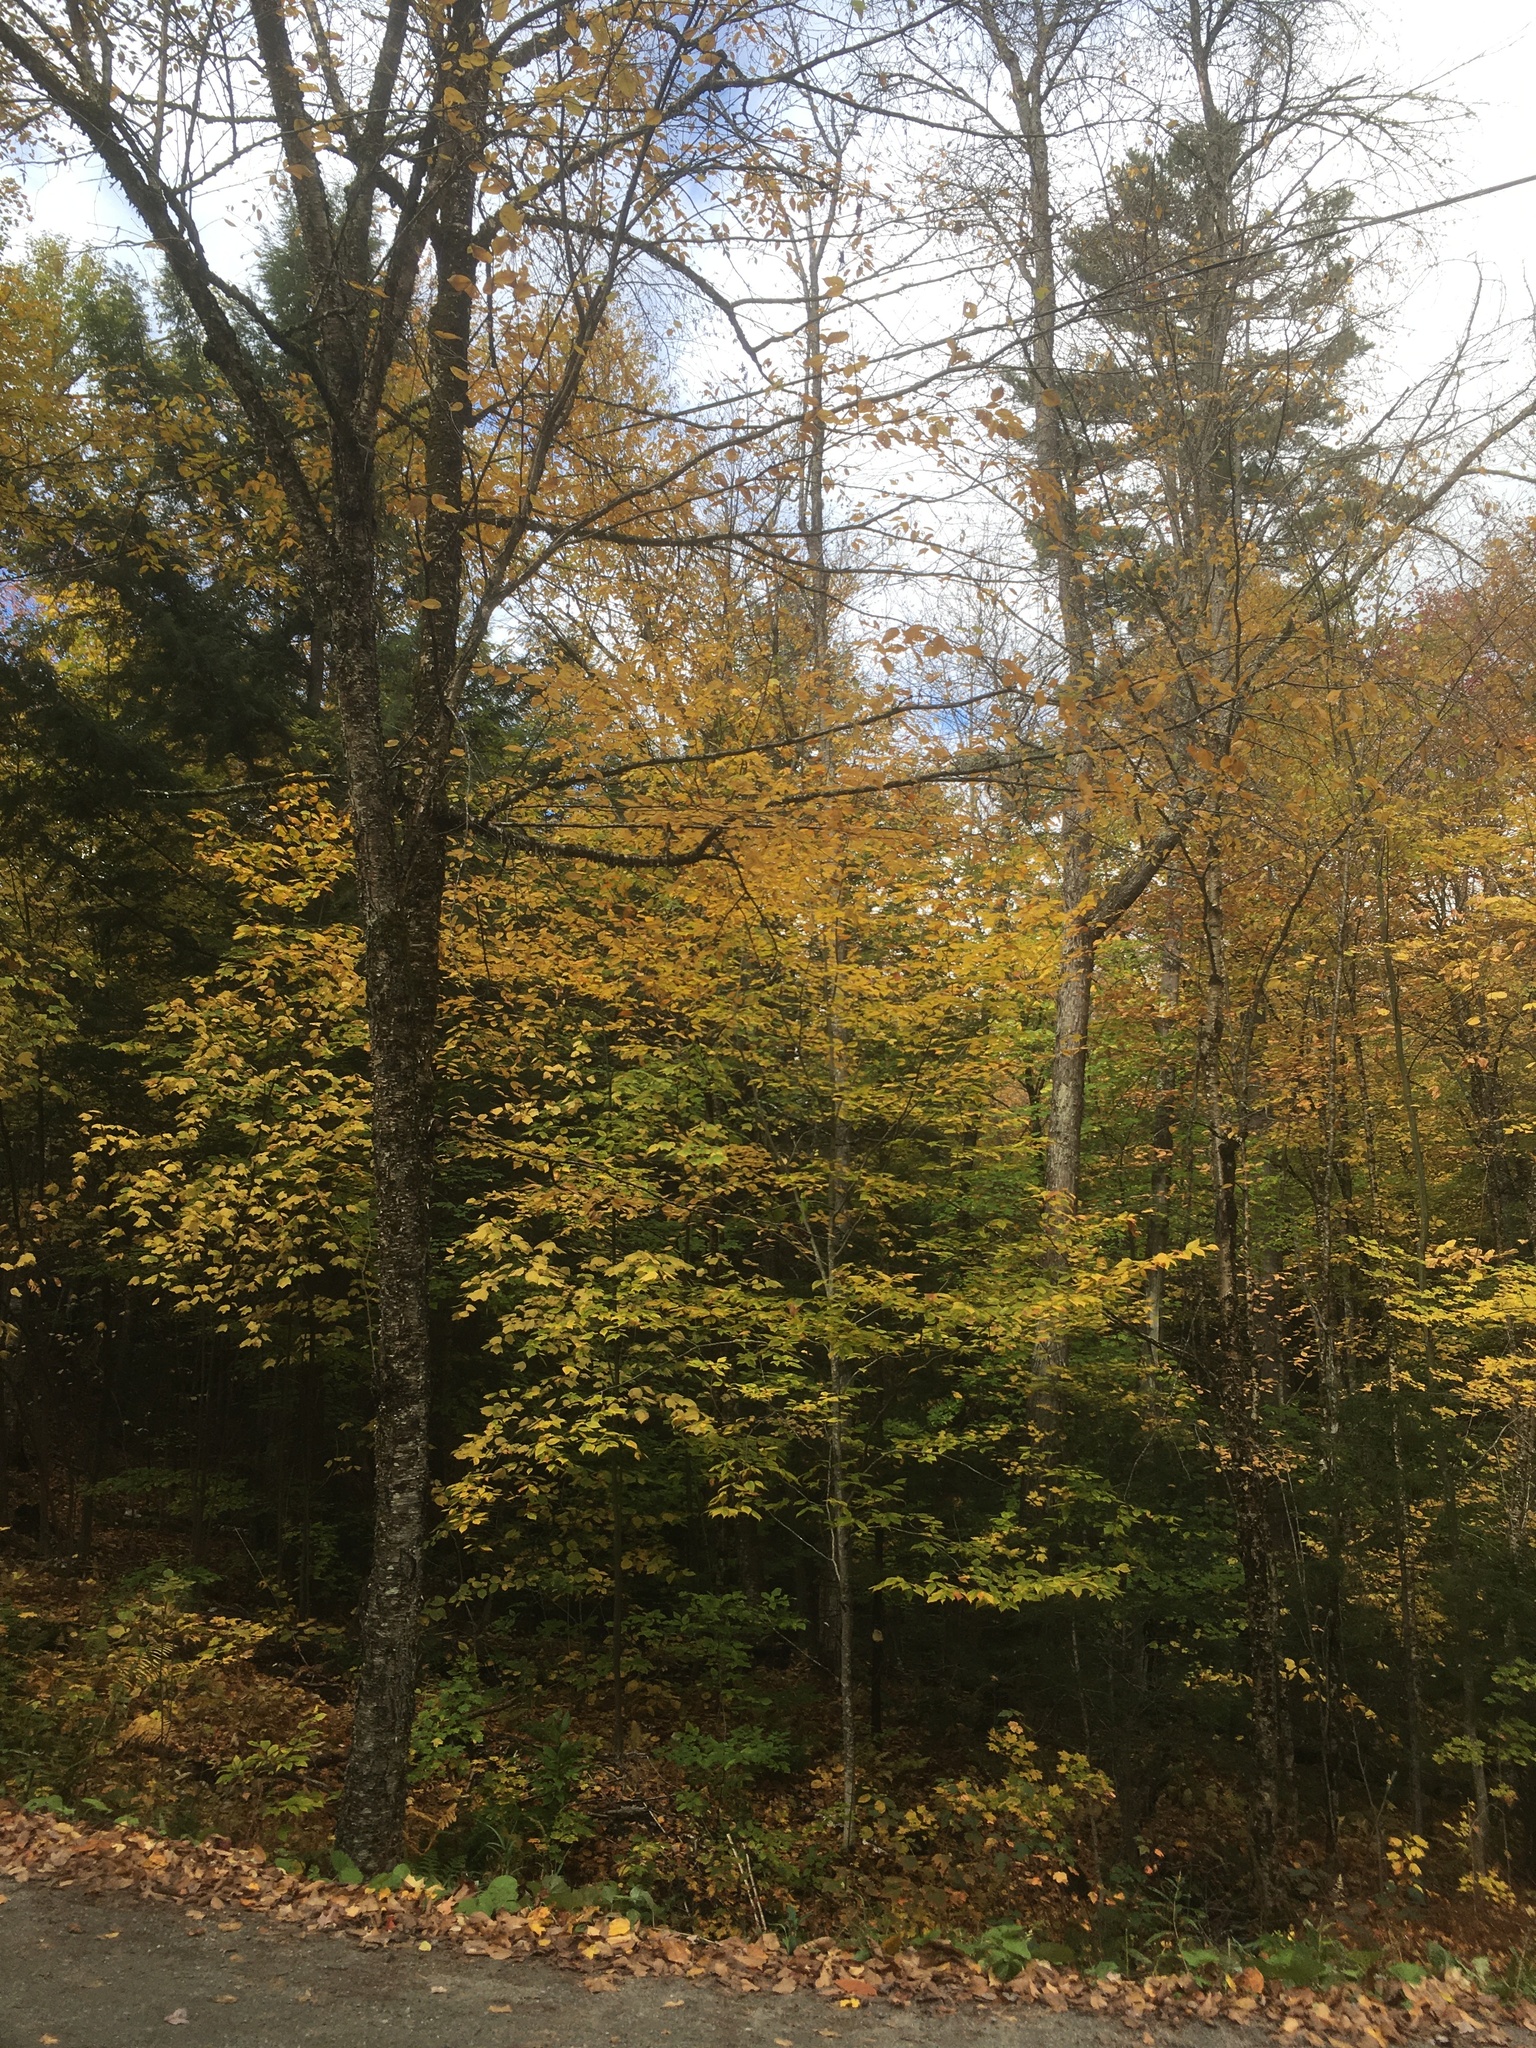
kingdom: Plantae
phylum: Tracheophyta
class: Magnoliopsida
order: Fagales
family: Betulaceae
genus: Betula
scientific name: Betula alleghaniensis
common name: Yellow birch
